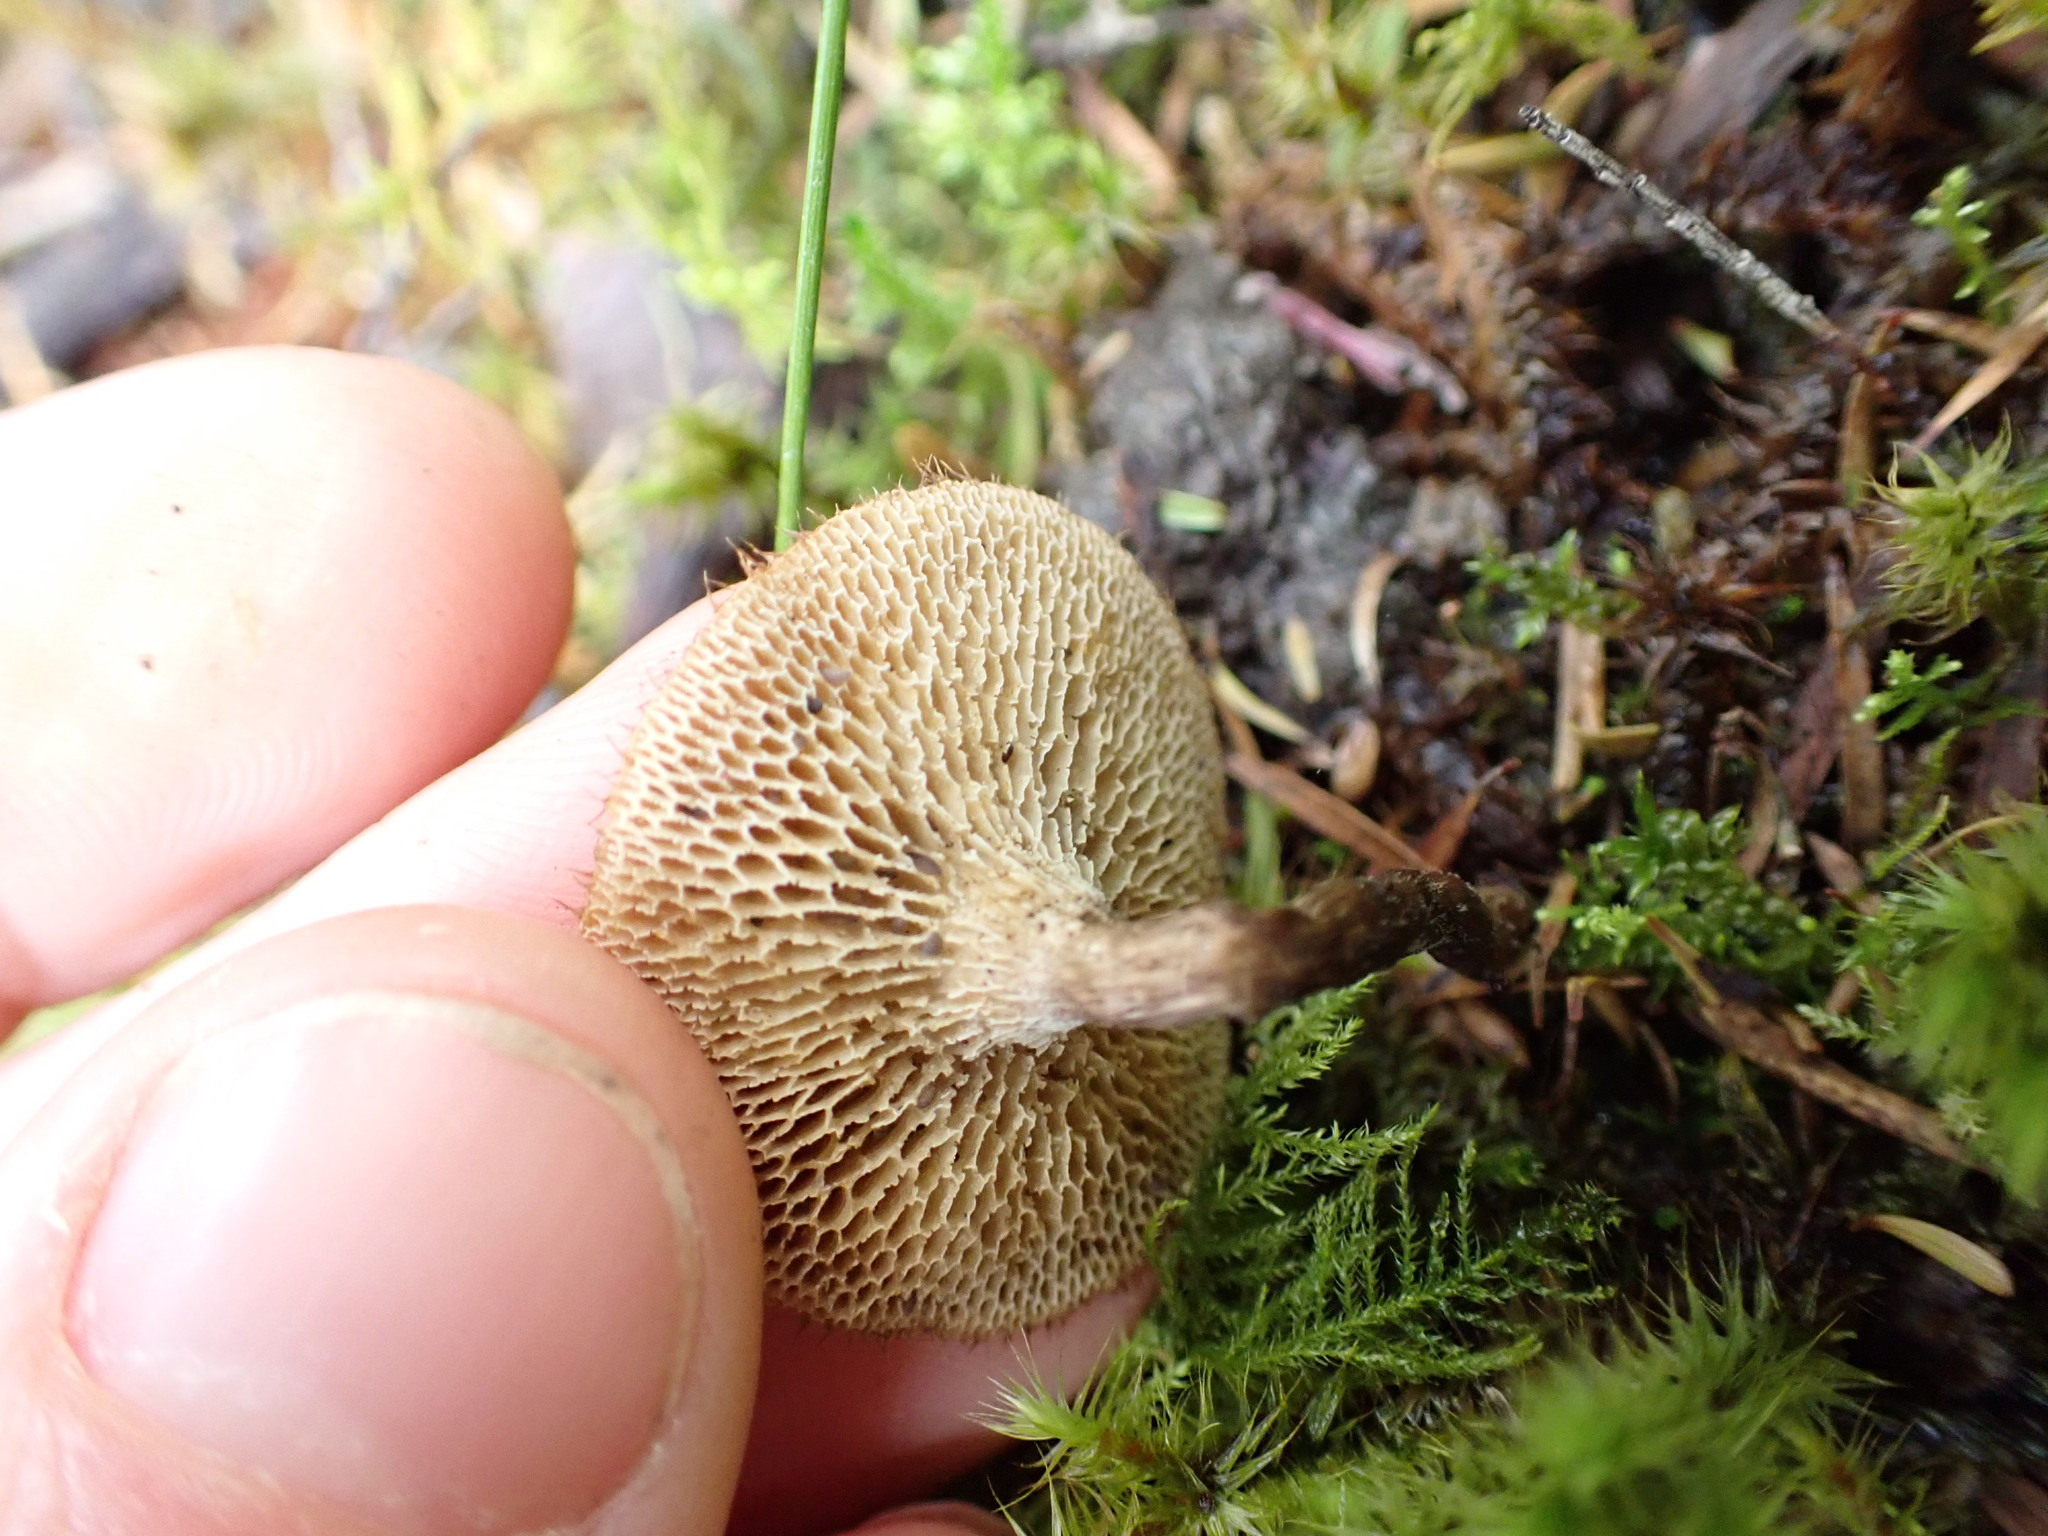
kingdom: Fungi
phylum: Basidiomycota
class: Agaricomycetes
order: Polyporales
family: Polyporaceae
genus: Lentinus
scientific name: Lentinus arcularius
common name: Spring polypore
